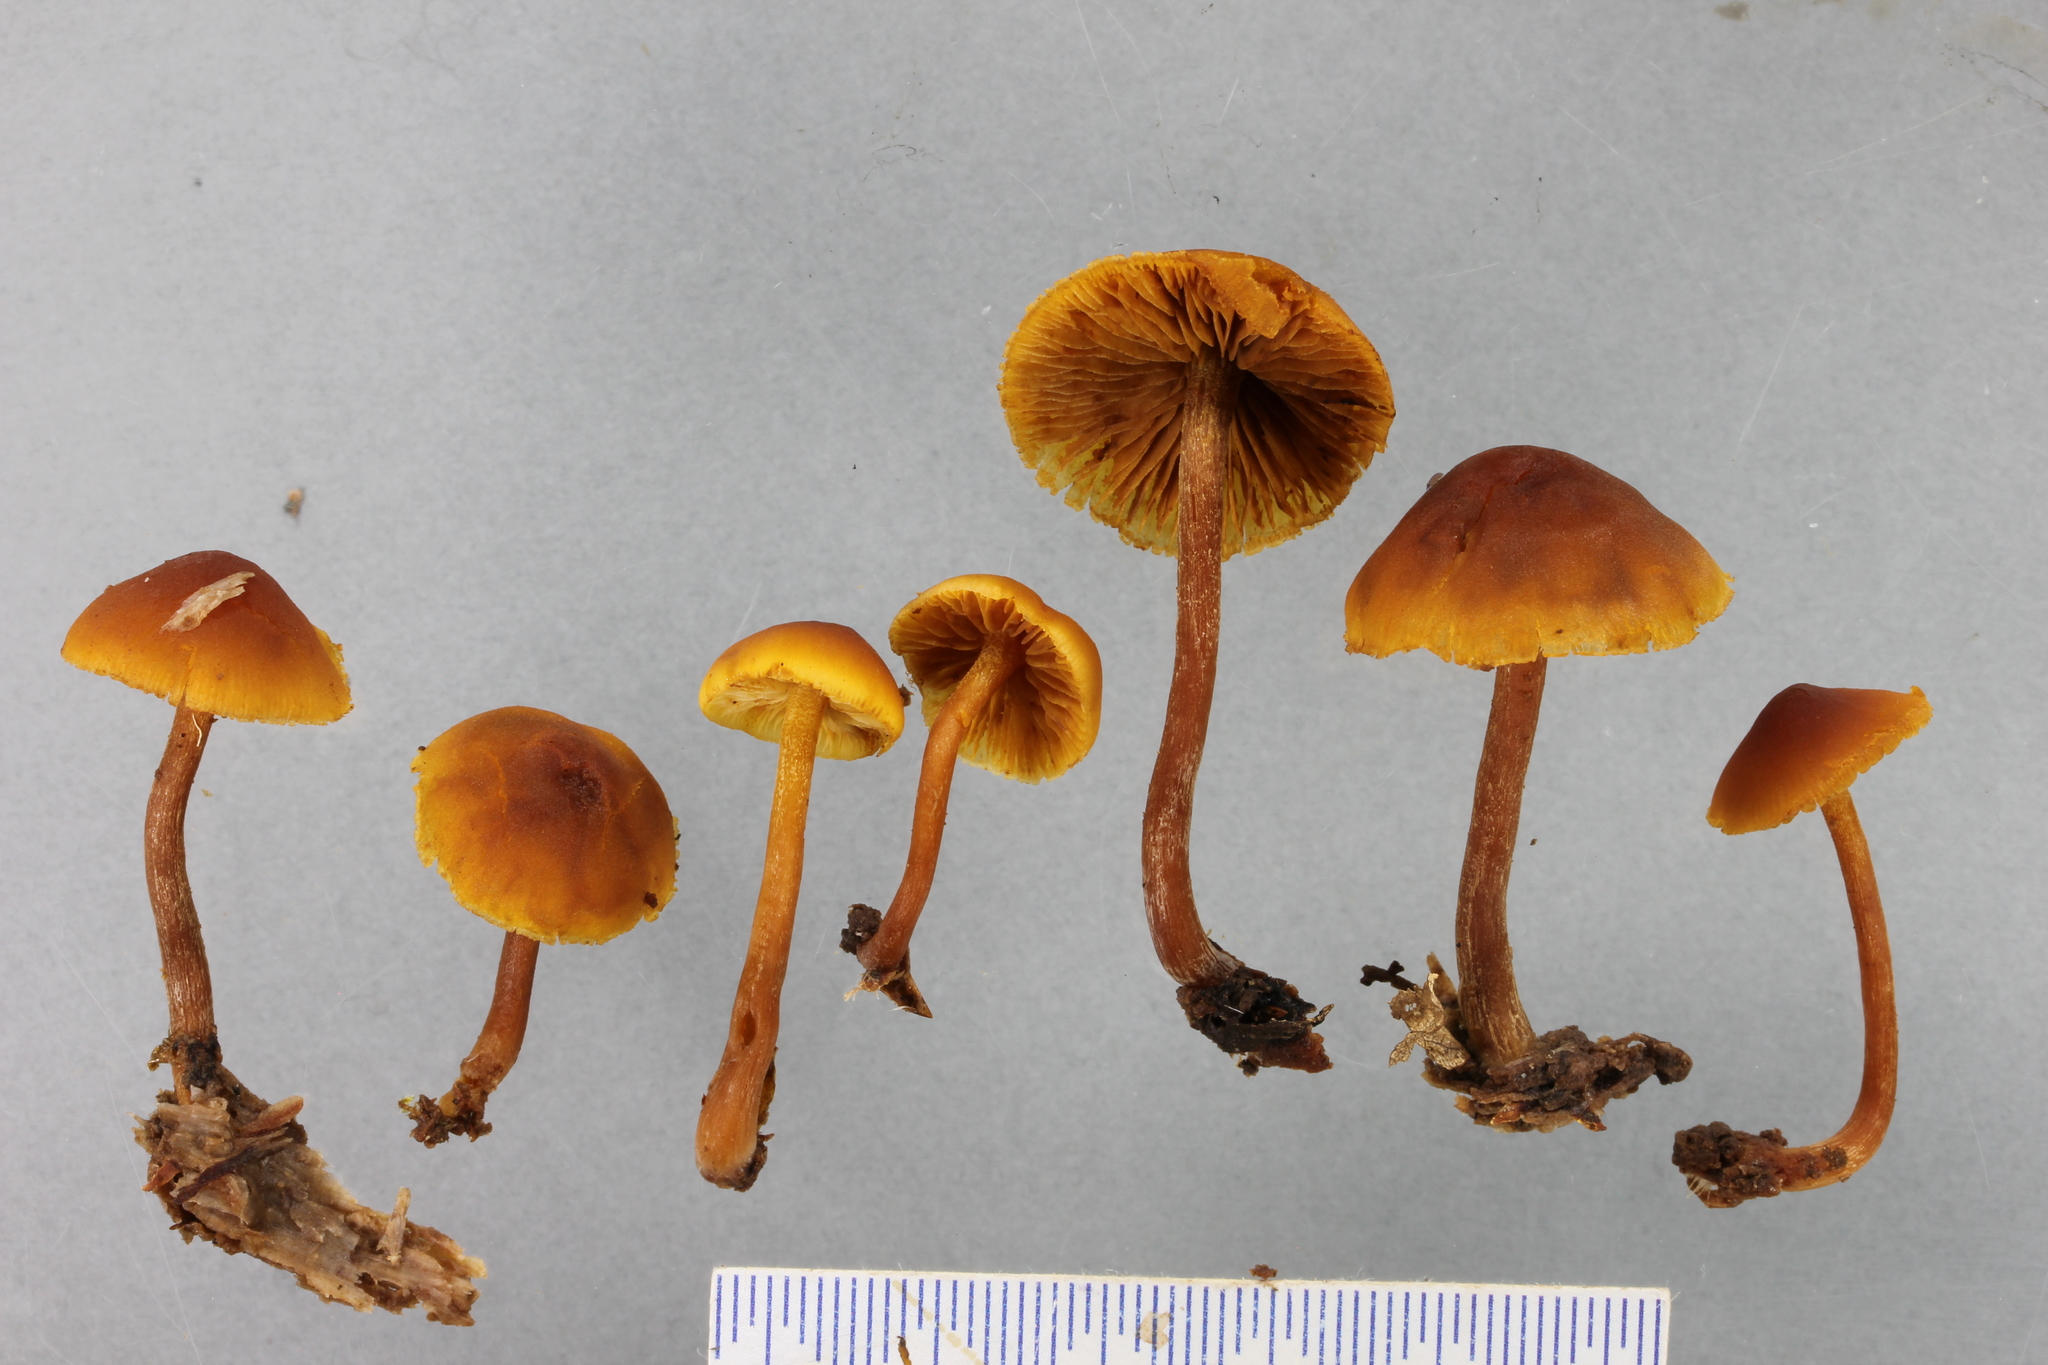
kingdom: Fungi
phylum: Basidiomycota
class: Agaricomycetes
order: Agaricales
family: Hymenogastraceae
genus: Gymnopilus
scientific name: Gymnopilus austropicreus
